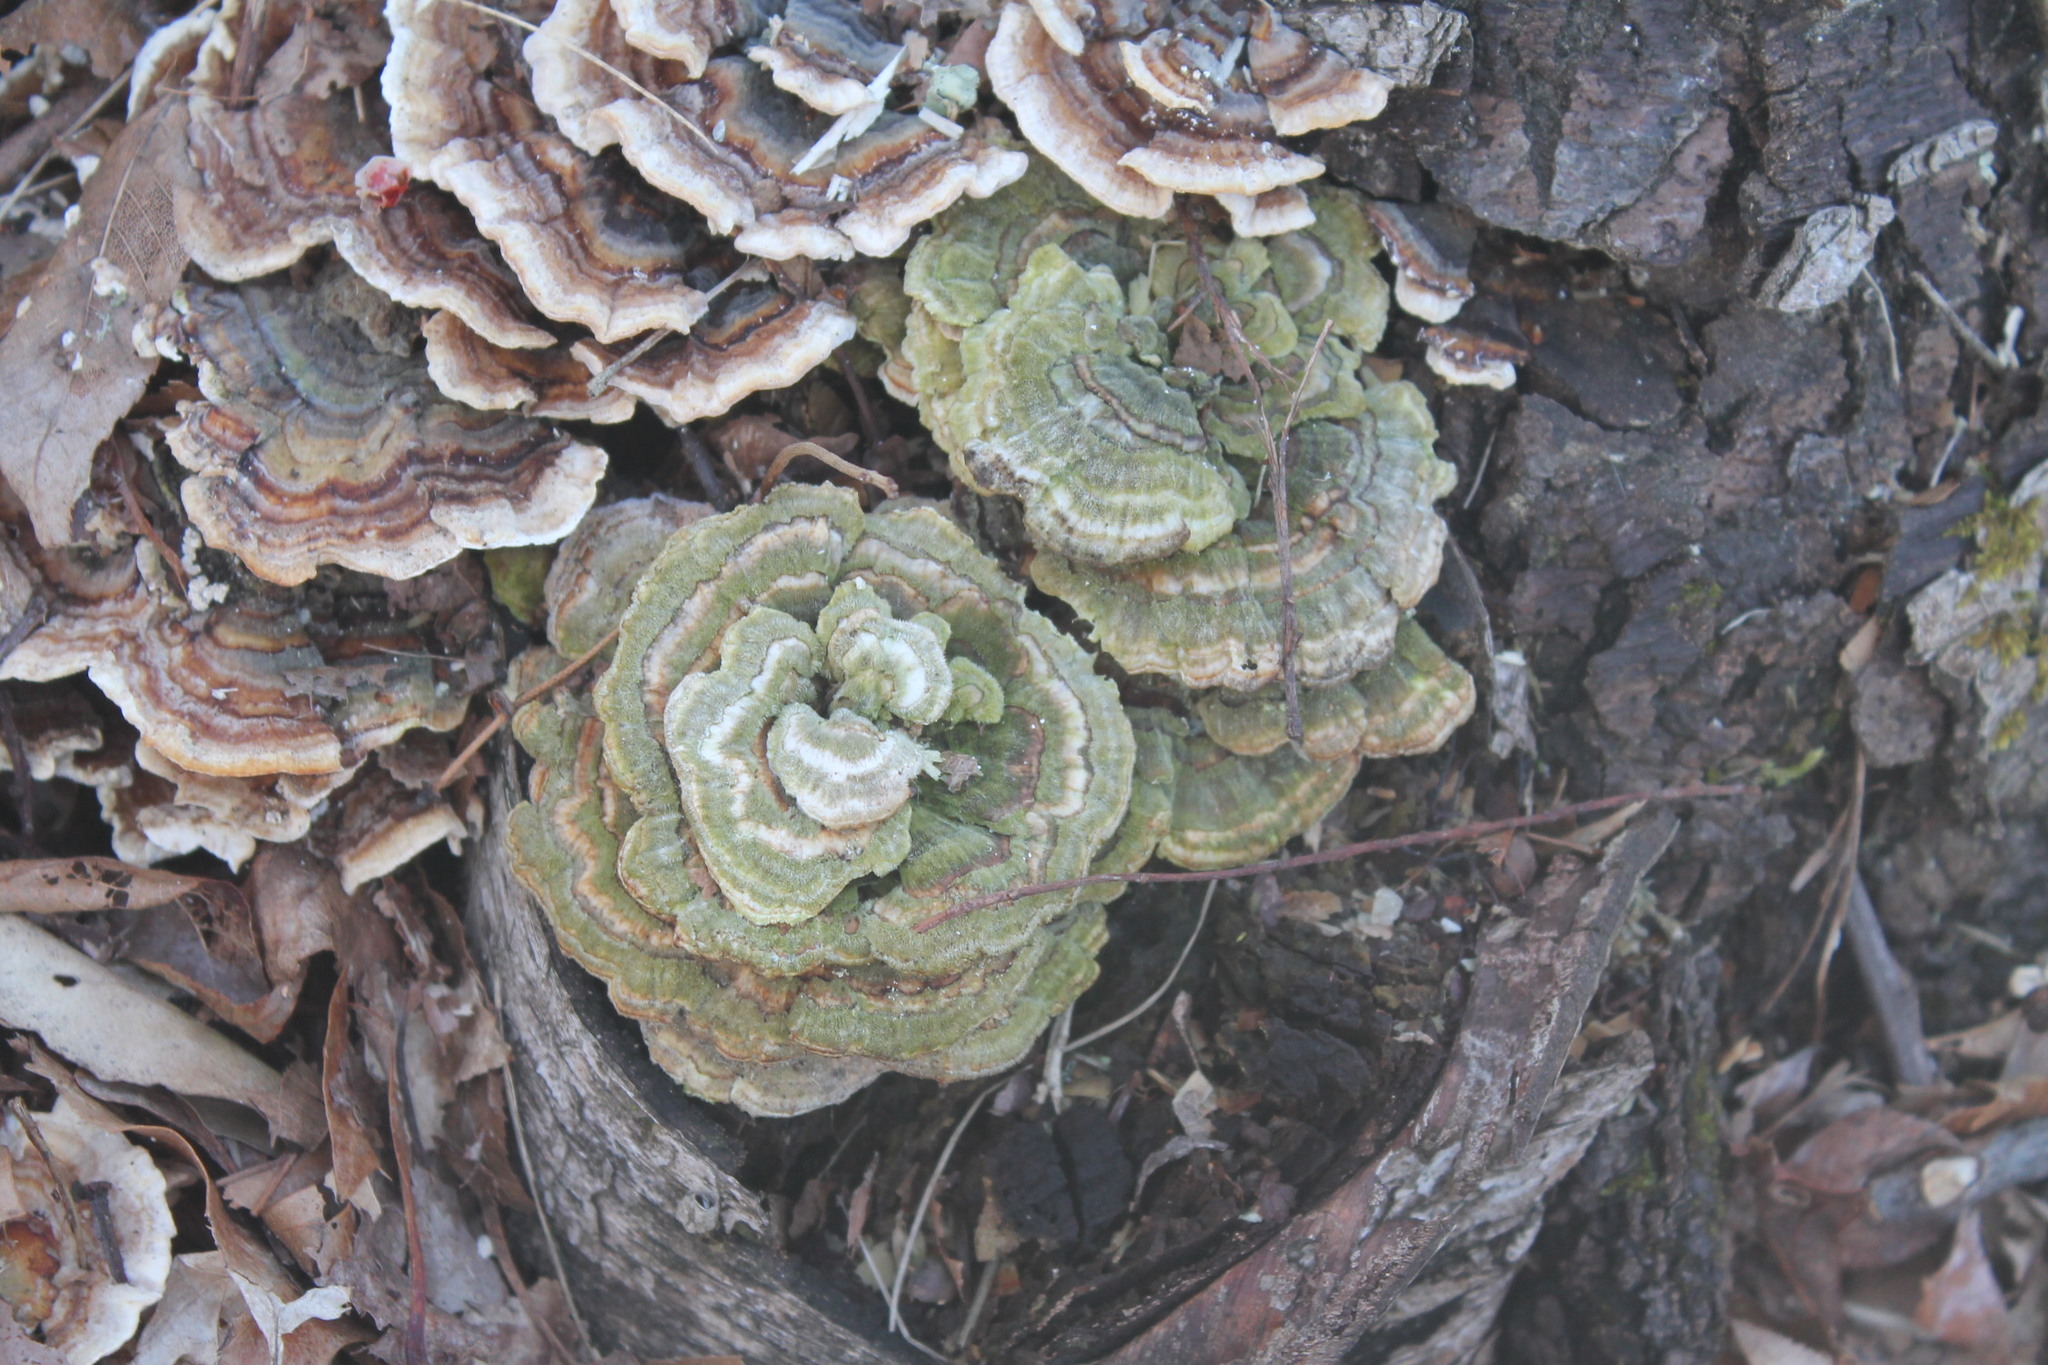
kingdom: Fungi
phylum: Basidiomycota
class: Agaricomycetes
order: Polyporales
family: Polyporaceae
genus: Trametes
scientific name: Trametes versicolor
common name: Turkeytail
